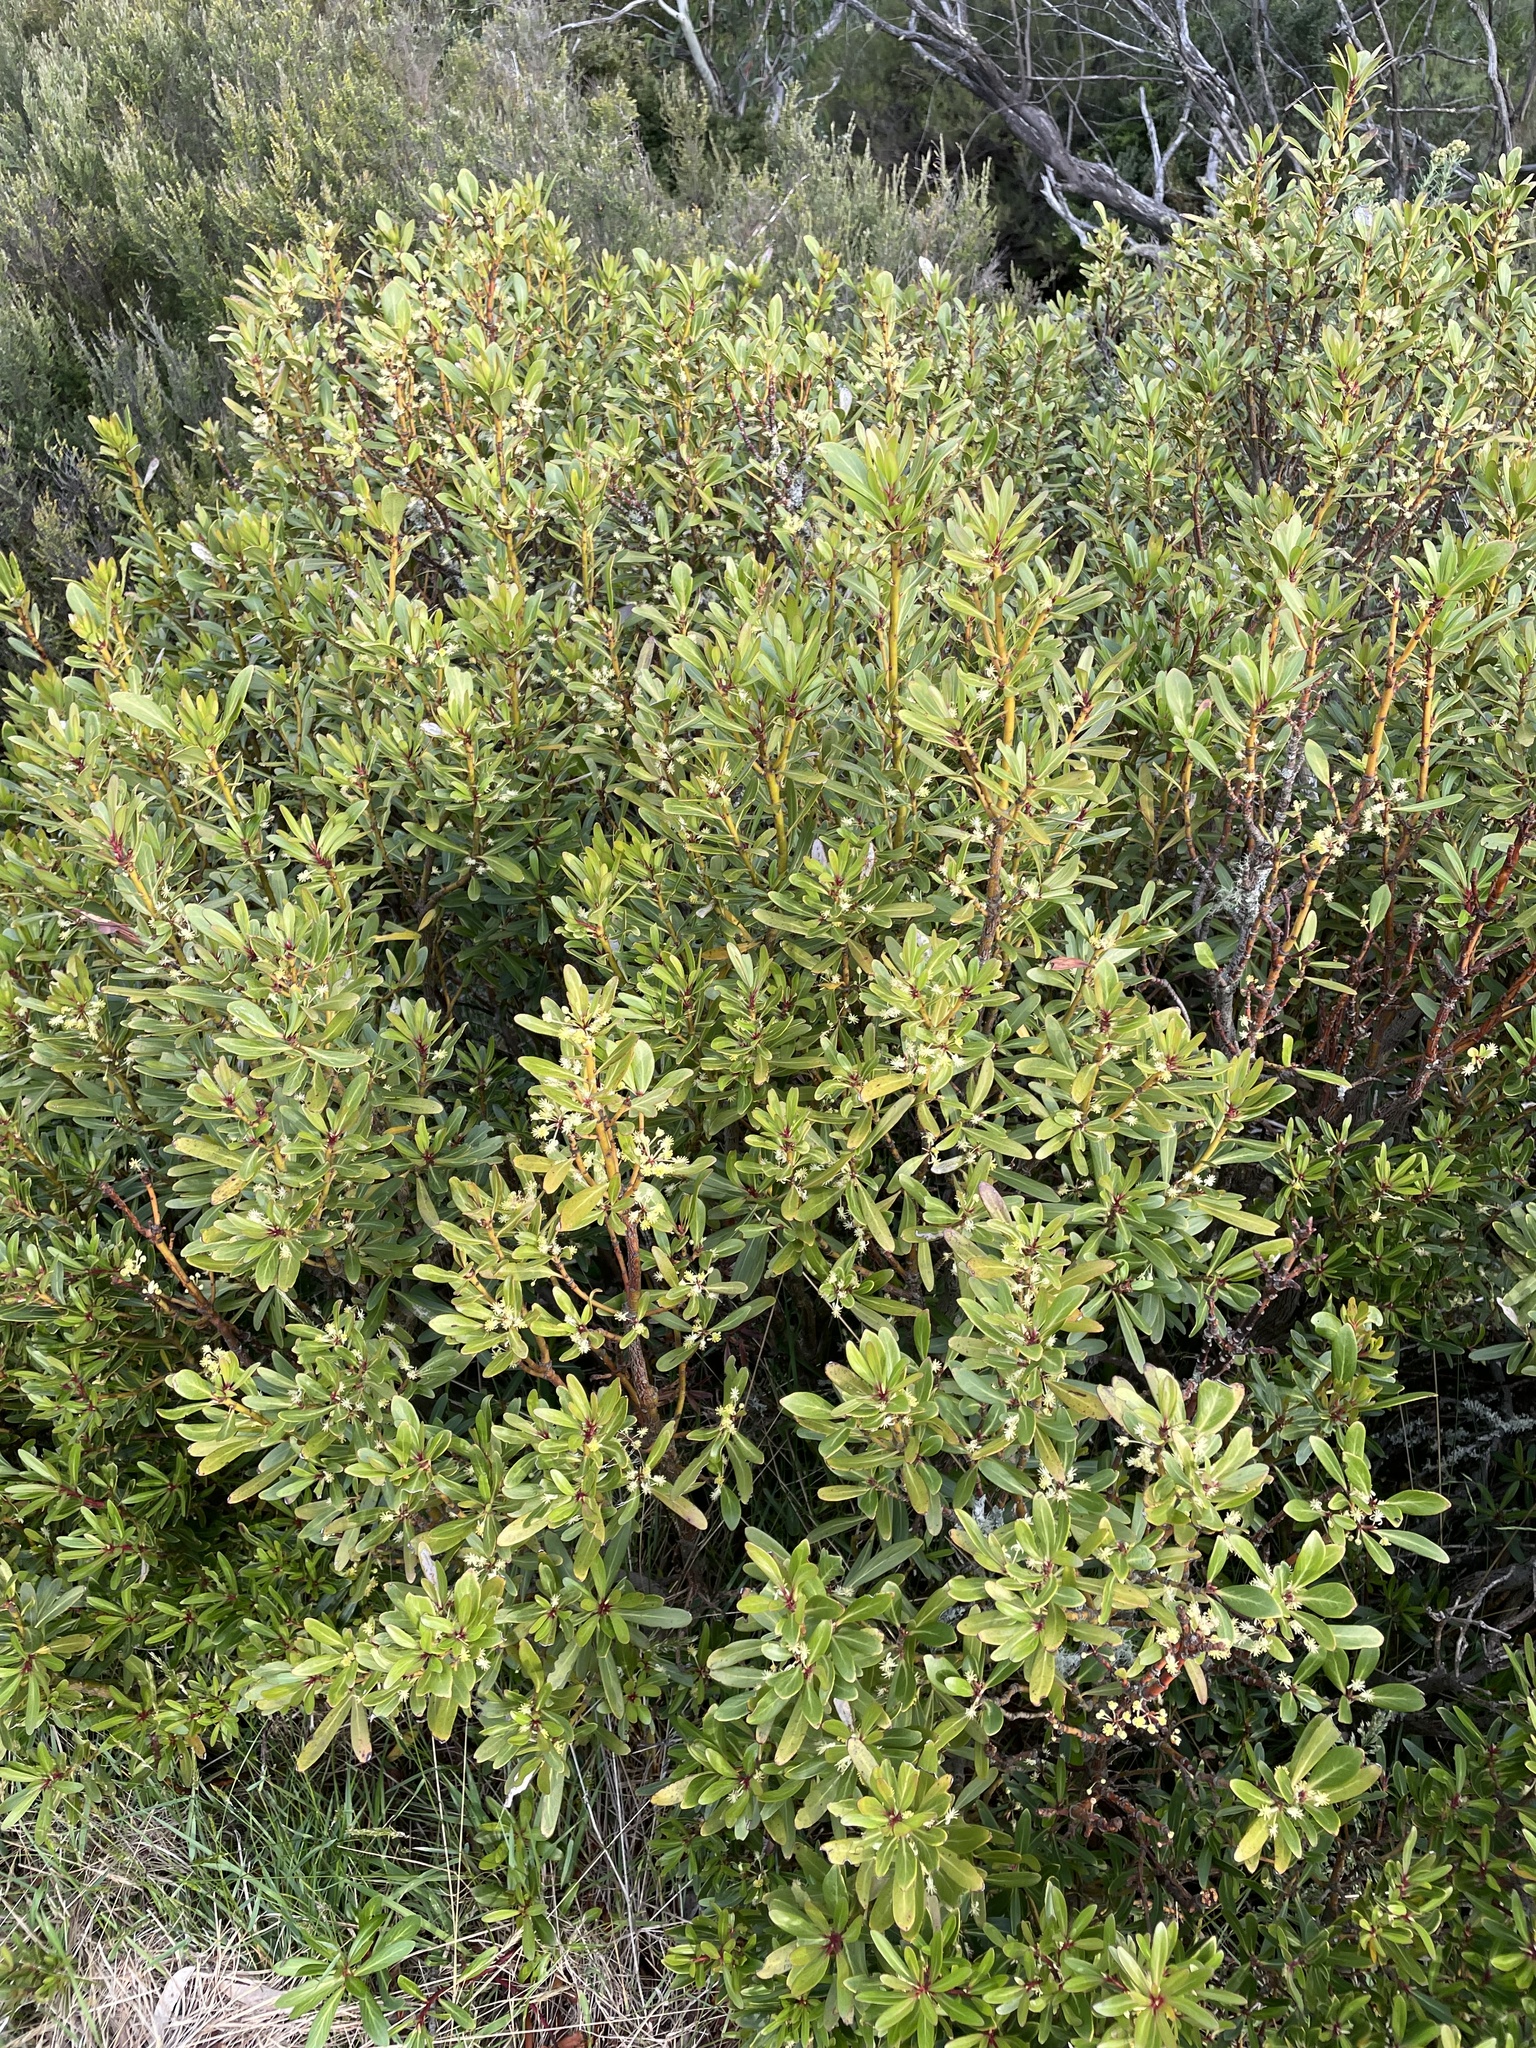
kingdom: Plantae
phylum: Tracheophyta
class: Magnoliopsida
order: Canellales
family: Winteraceae
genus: Drimys
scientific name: Drimys xerophila
